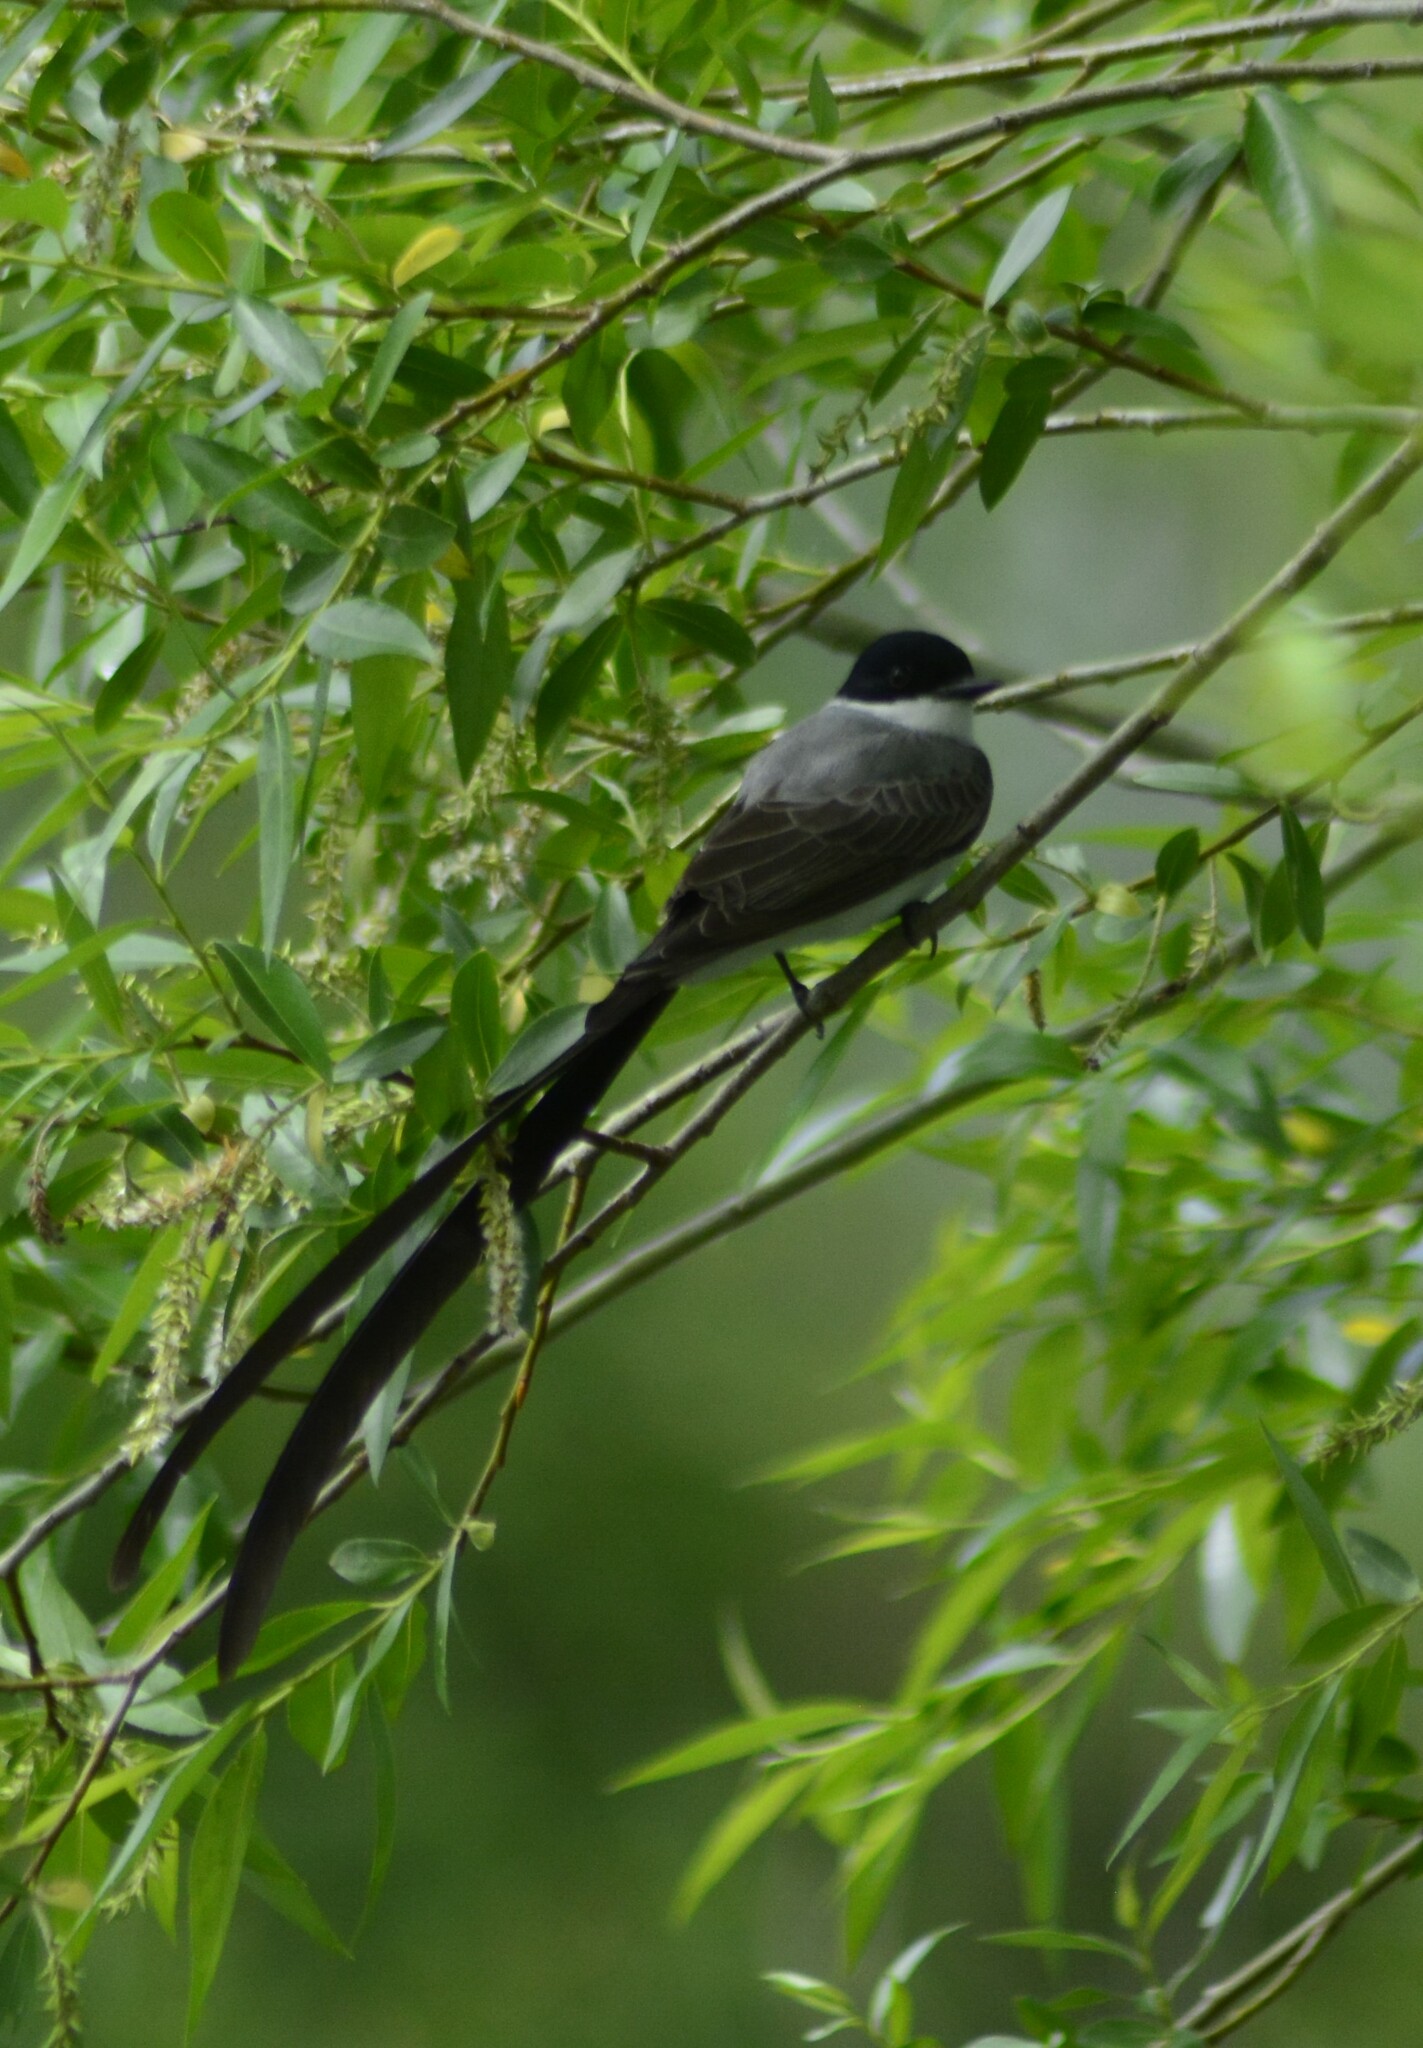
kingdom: Animalia
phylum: Chordata
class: Aves
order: Passeriformes
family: Tyrannidae
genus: Tyrannus
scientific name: Tyrannus savana
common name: Fork-tailed flycatcher
